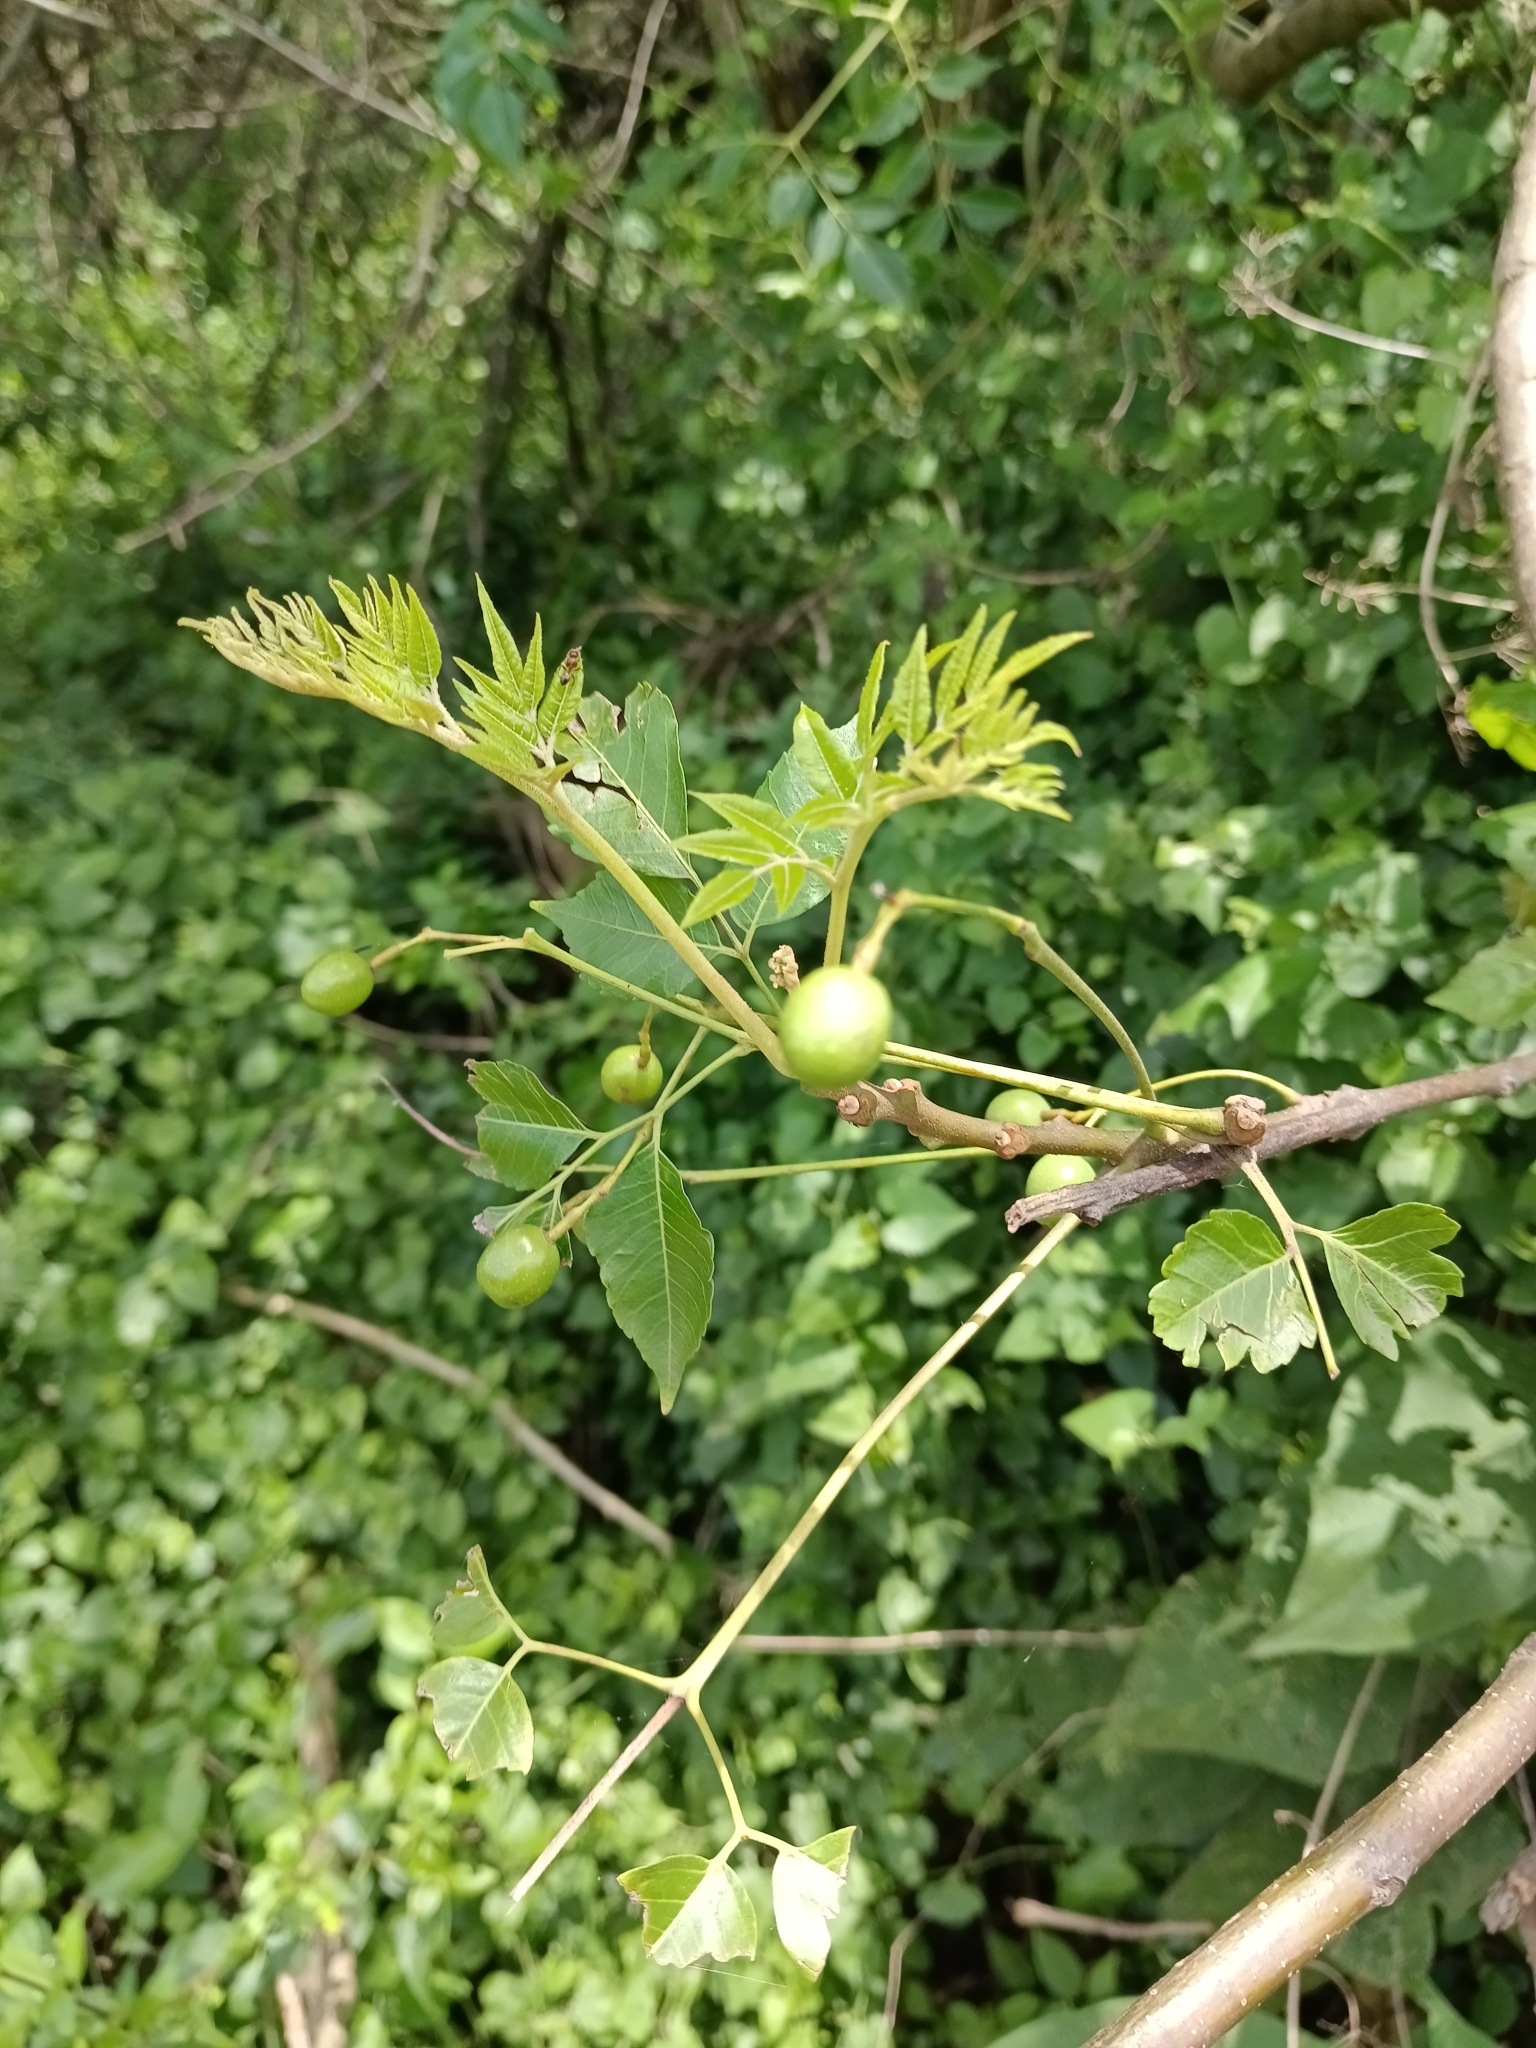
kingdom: Plantae
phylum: Tracheophyta
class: Magnoliopsida
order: Sapindales
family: Meliaceae
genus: Melia
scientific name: Melia azedarach
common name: Chinaberrytree
